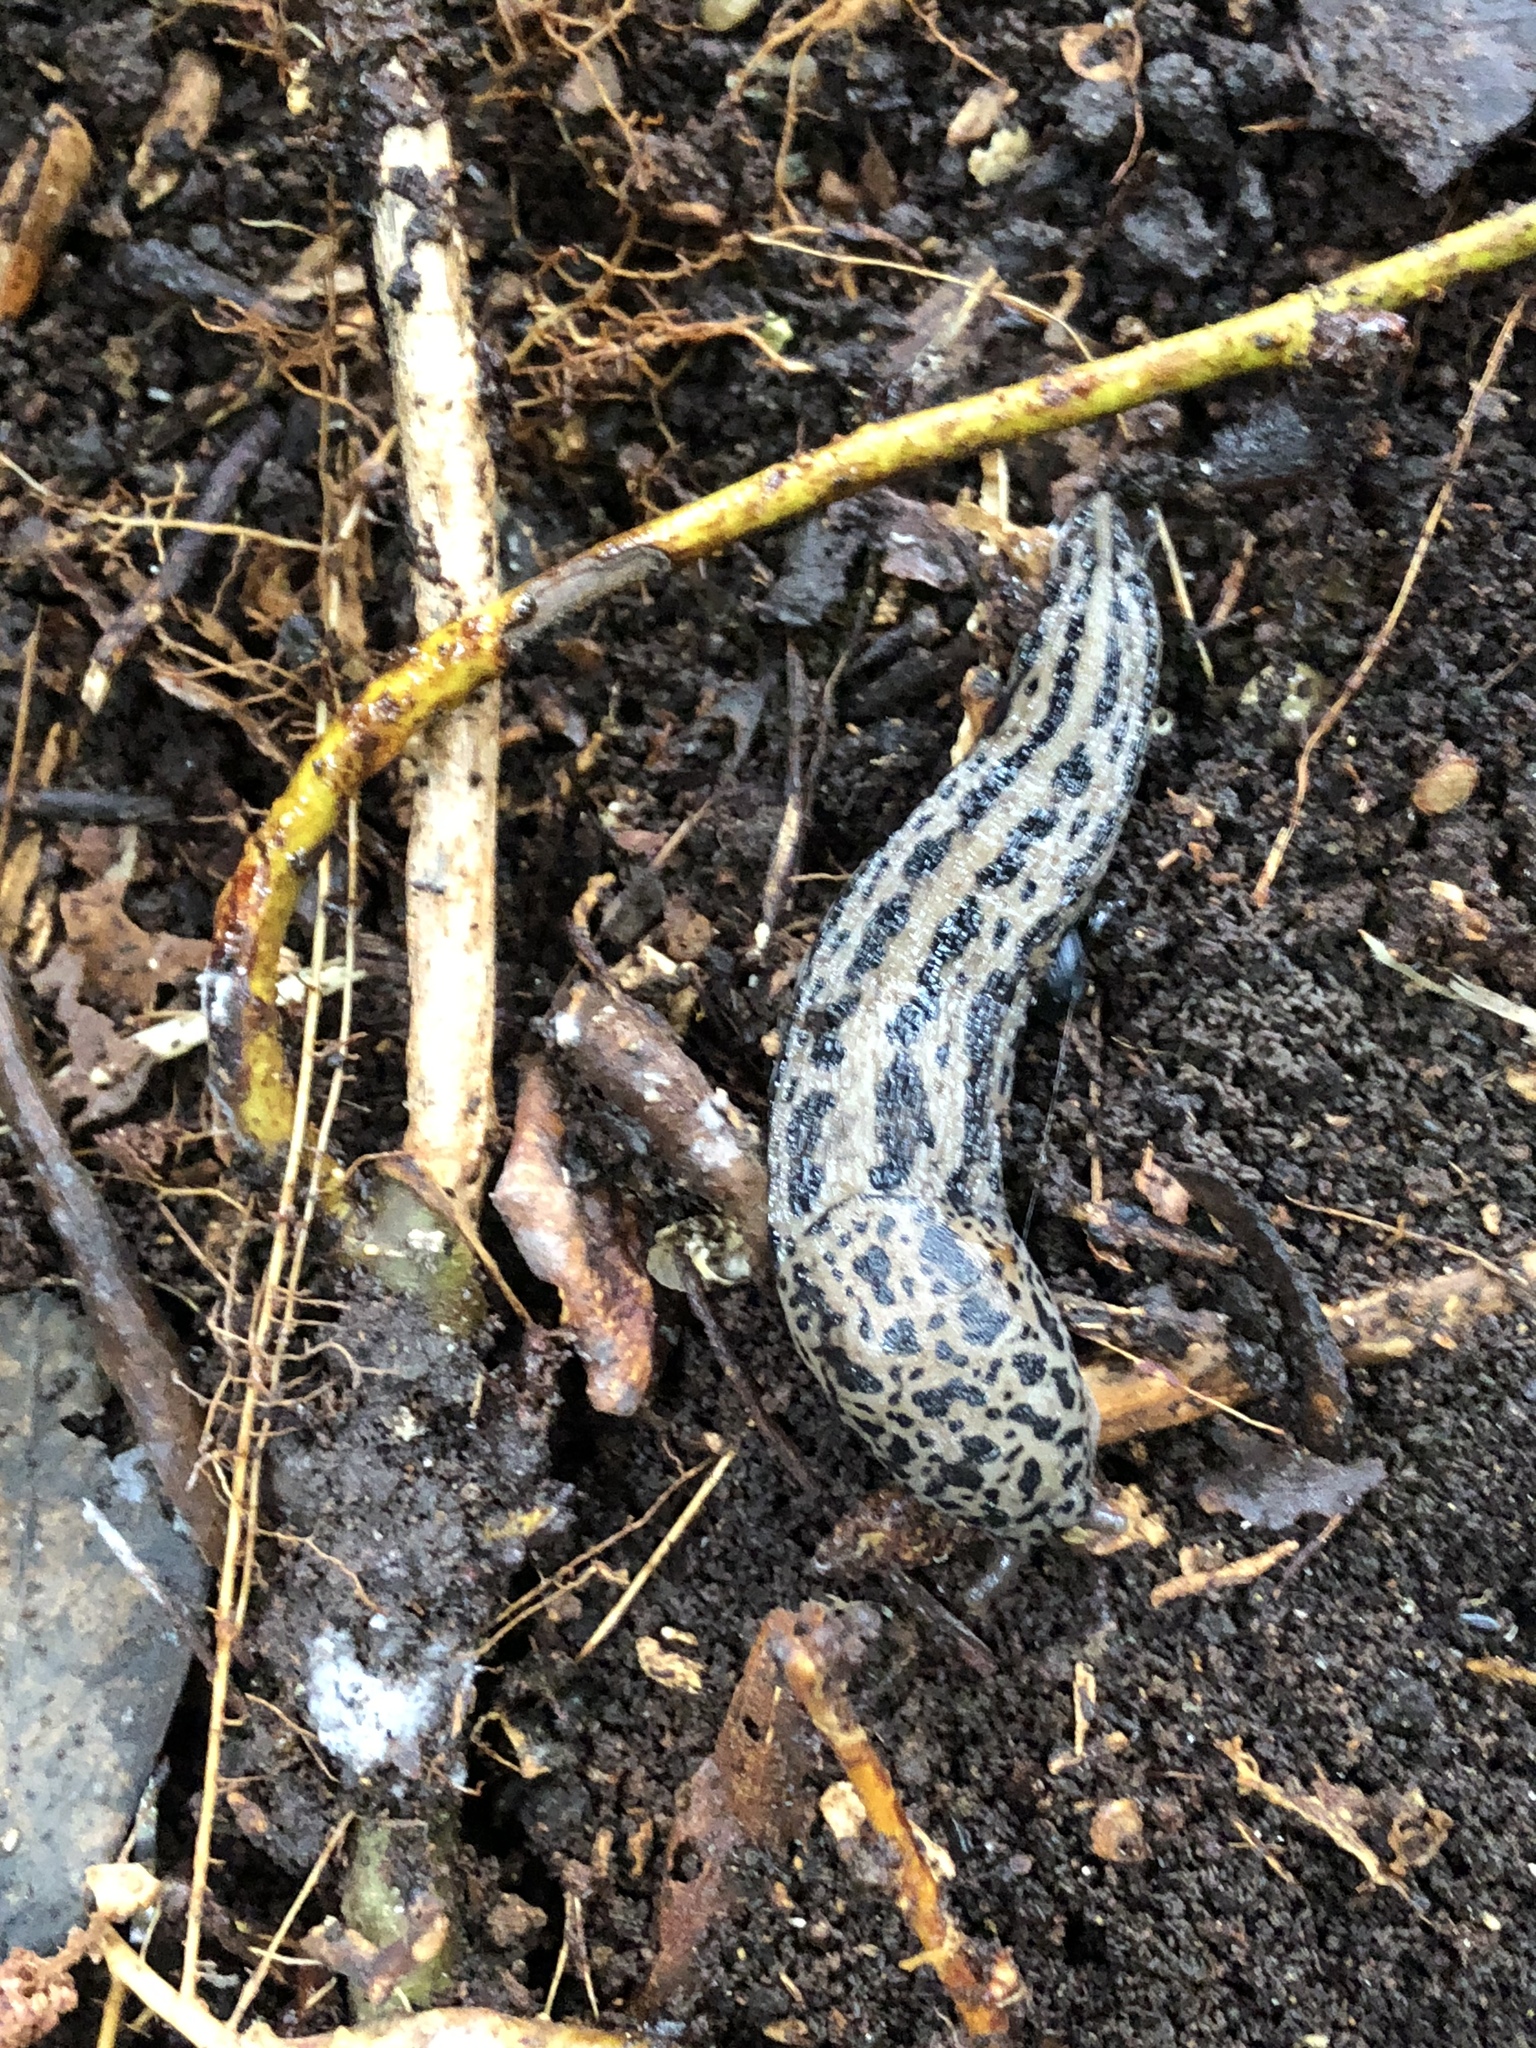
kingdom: Animalia
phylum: Mollusca
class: Gastropoda
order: Stylommatophora
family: Limacidae
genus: Limax
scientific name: Limax maximus
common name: Great grey slug
